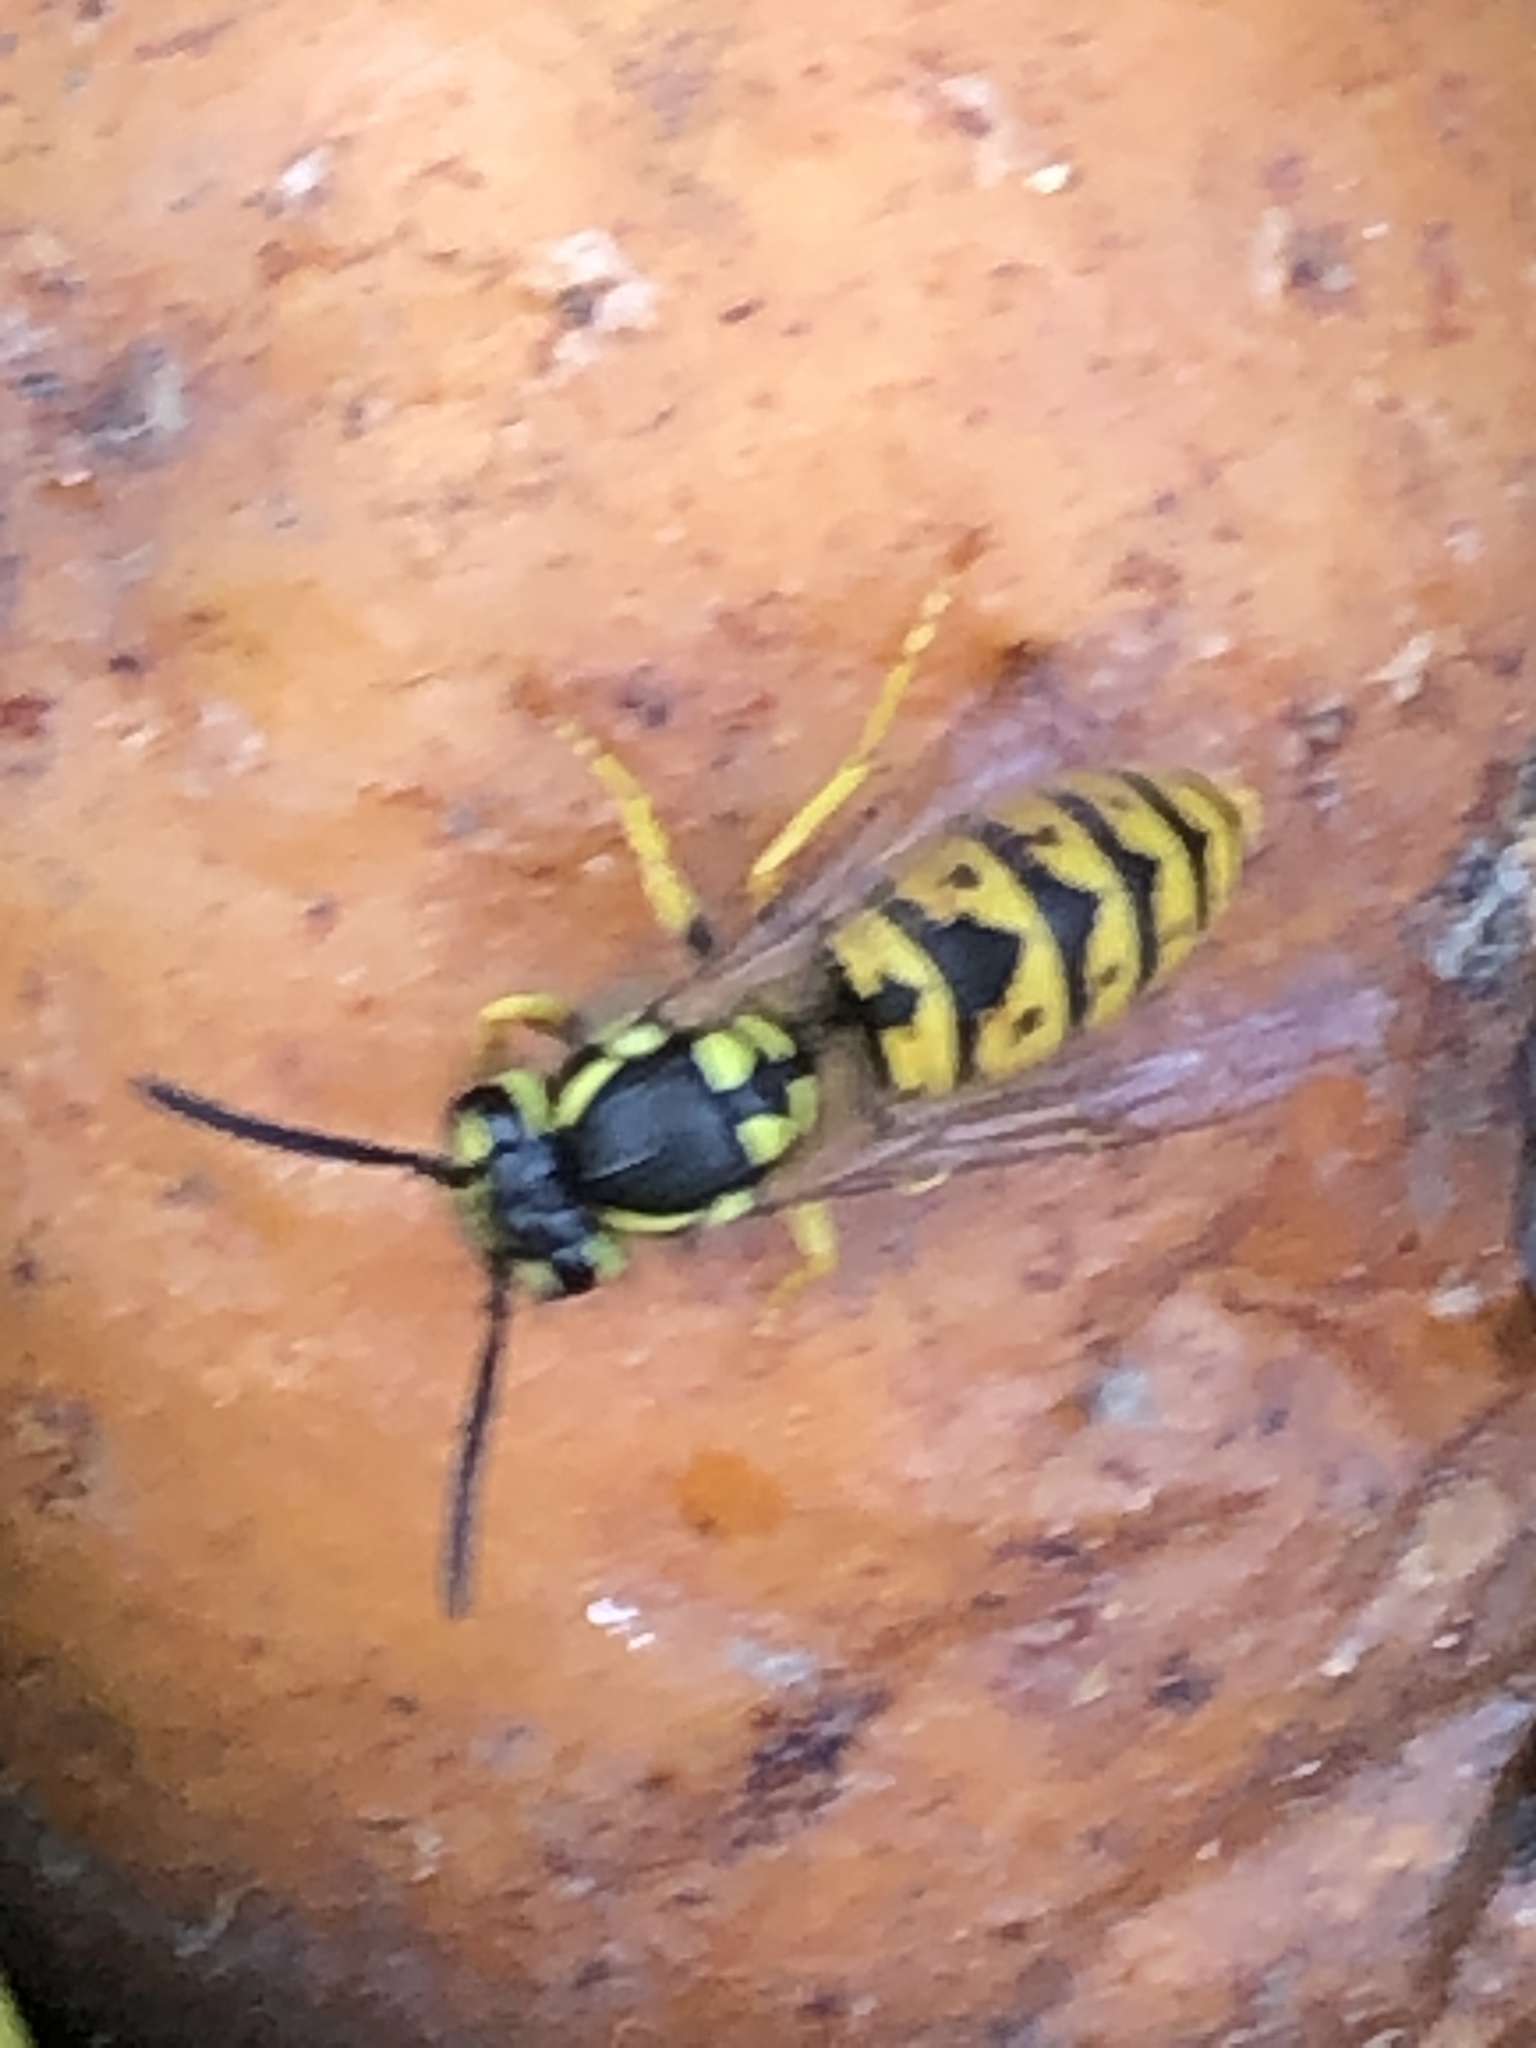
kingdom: Animalia
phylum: Arthropoda
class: Insecta
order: Hymenoptera
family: Vespidae
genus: Vespula
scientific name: Vespula germanica
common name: German wasp
